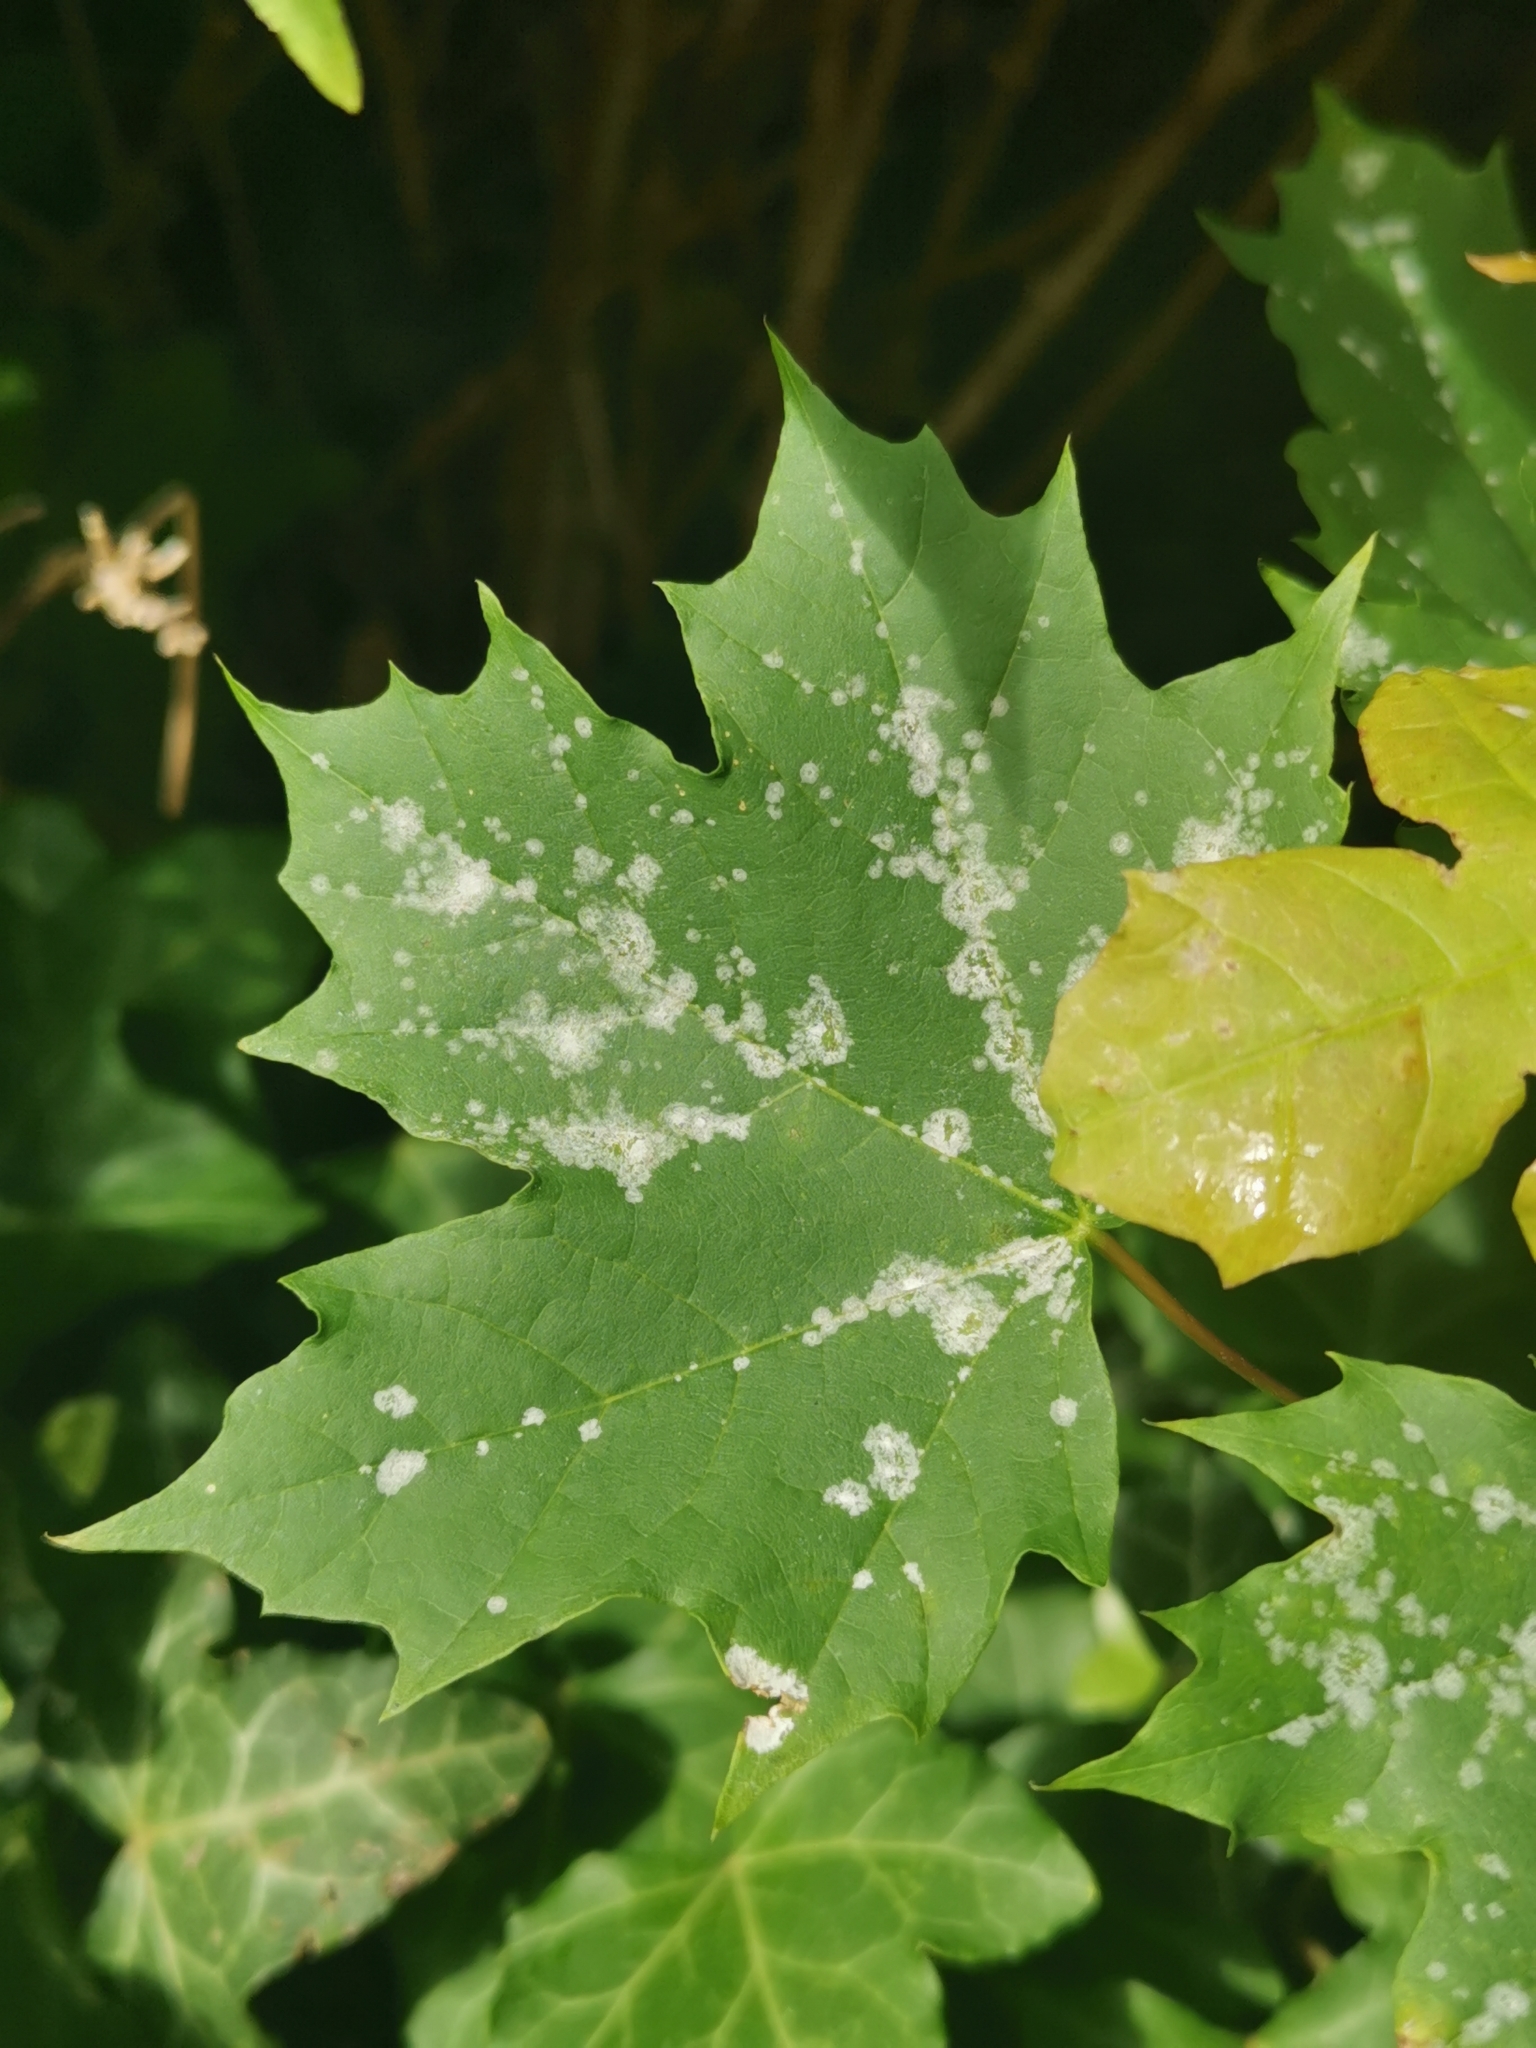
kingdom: Fungi
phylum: Ascomycota
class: Leotiomycetes
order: Helotiales
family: Erysiphaceae
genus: Sawadaea
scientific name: Sawadaea tulasnei
